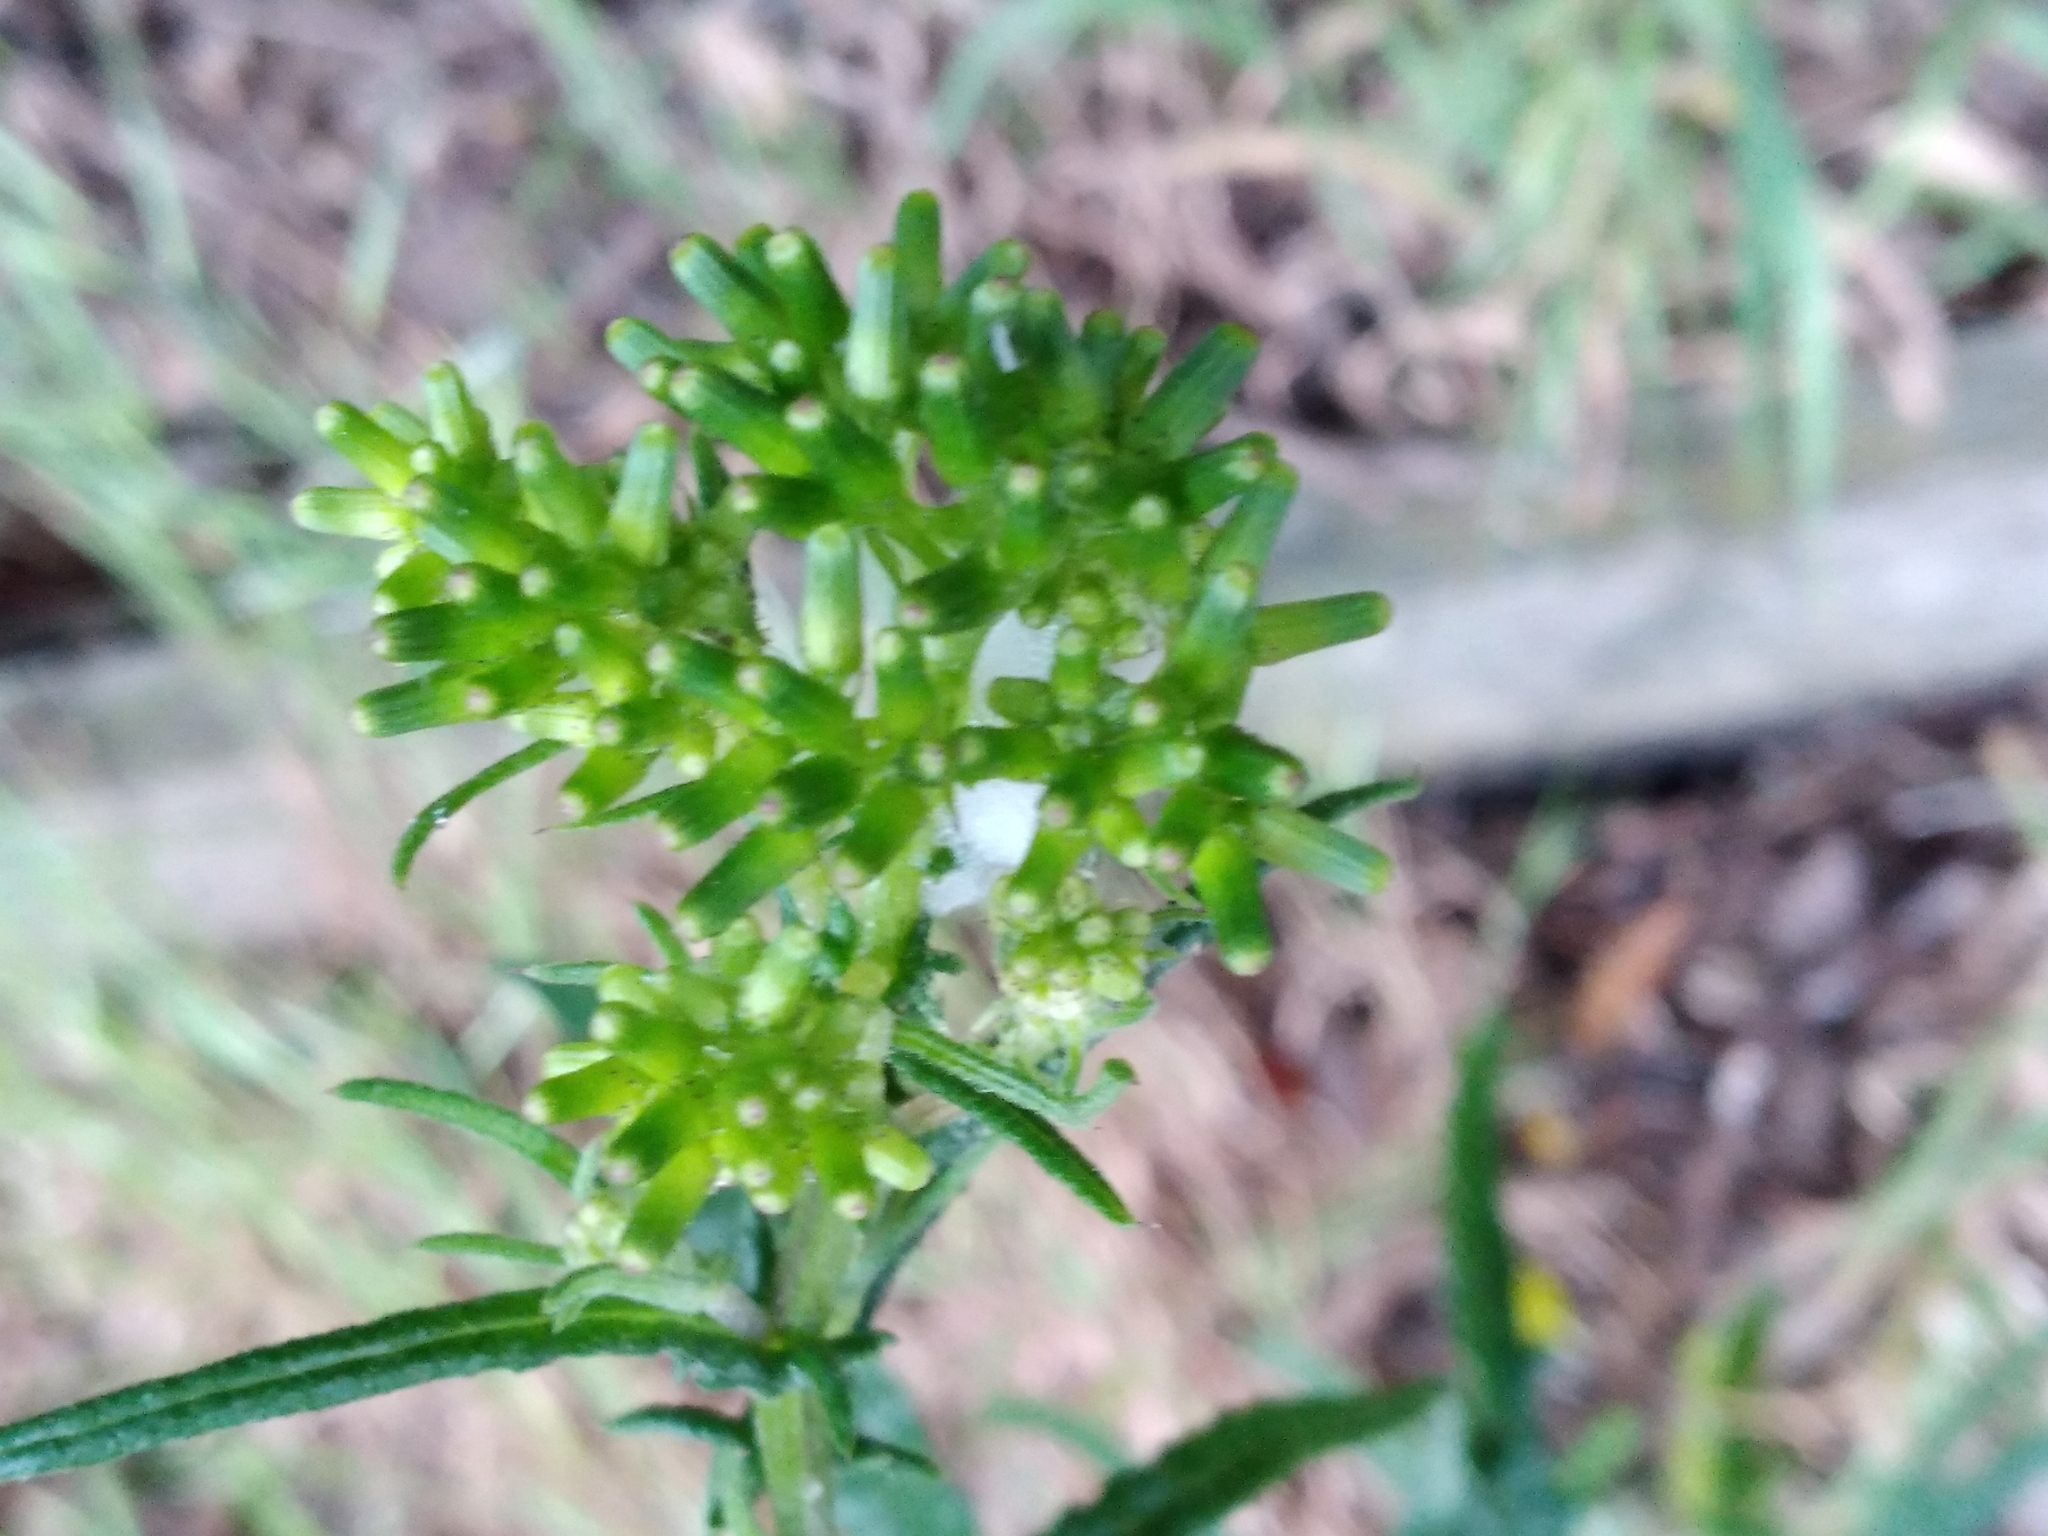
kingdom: Plantae
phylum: Tracheophyta
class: Magnoliopsida
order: Asterales
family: Asteraceae
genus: Senecio
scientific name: Senecio hispidulus
